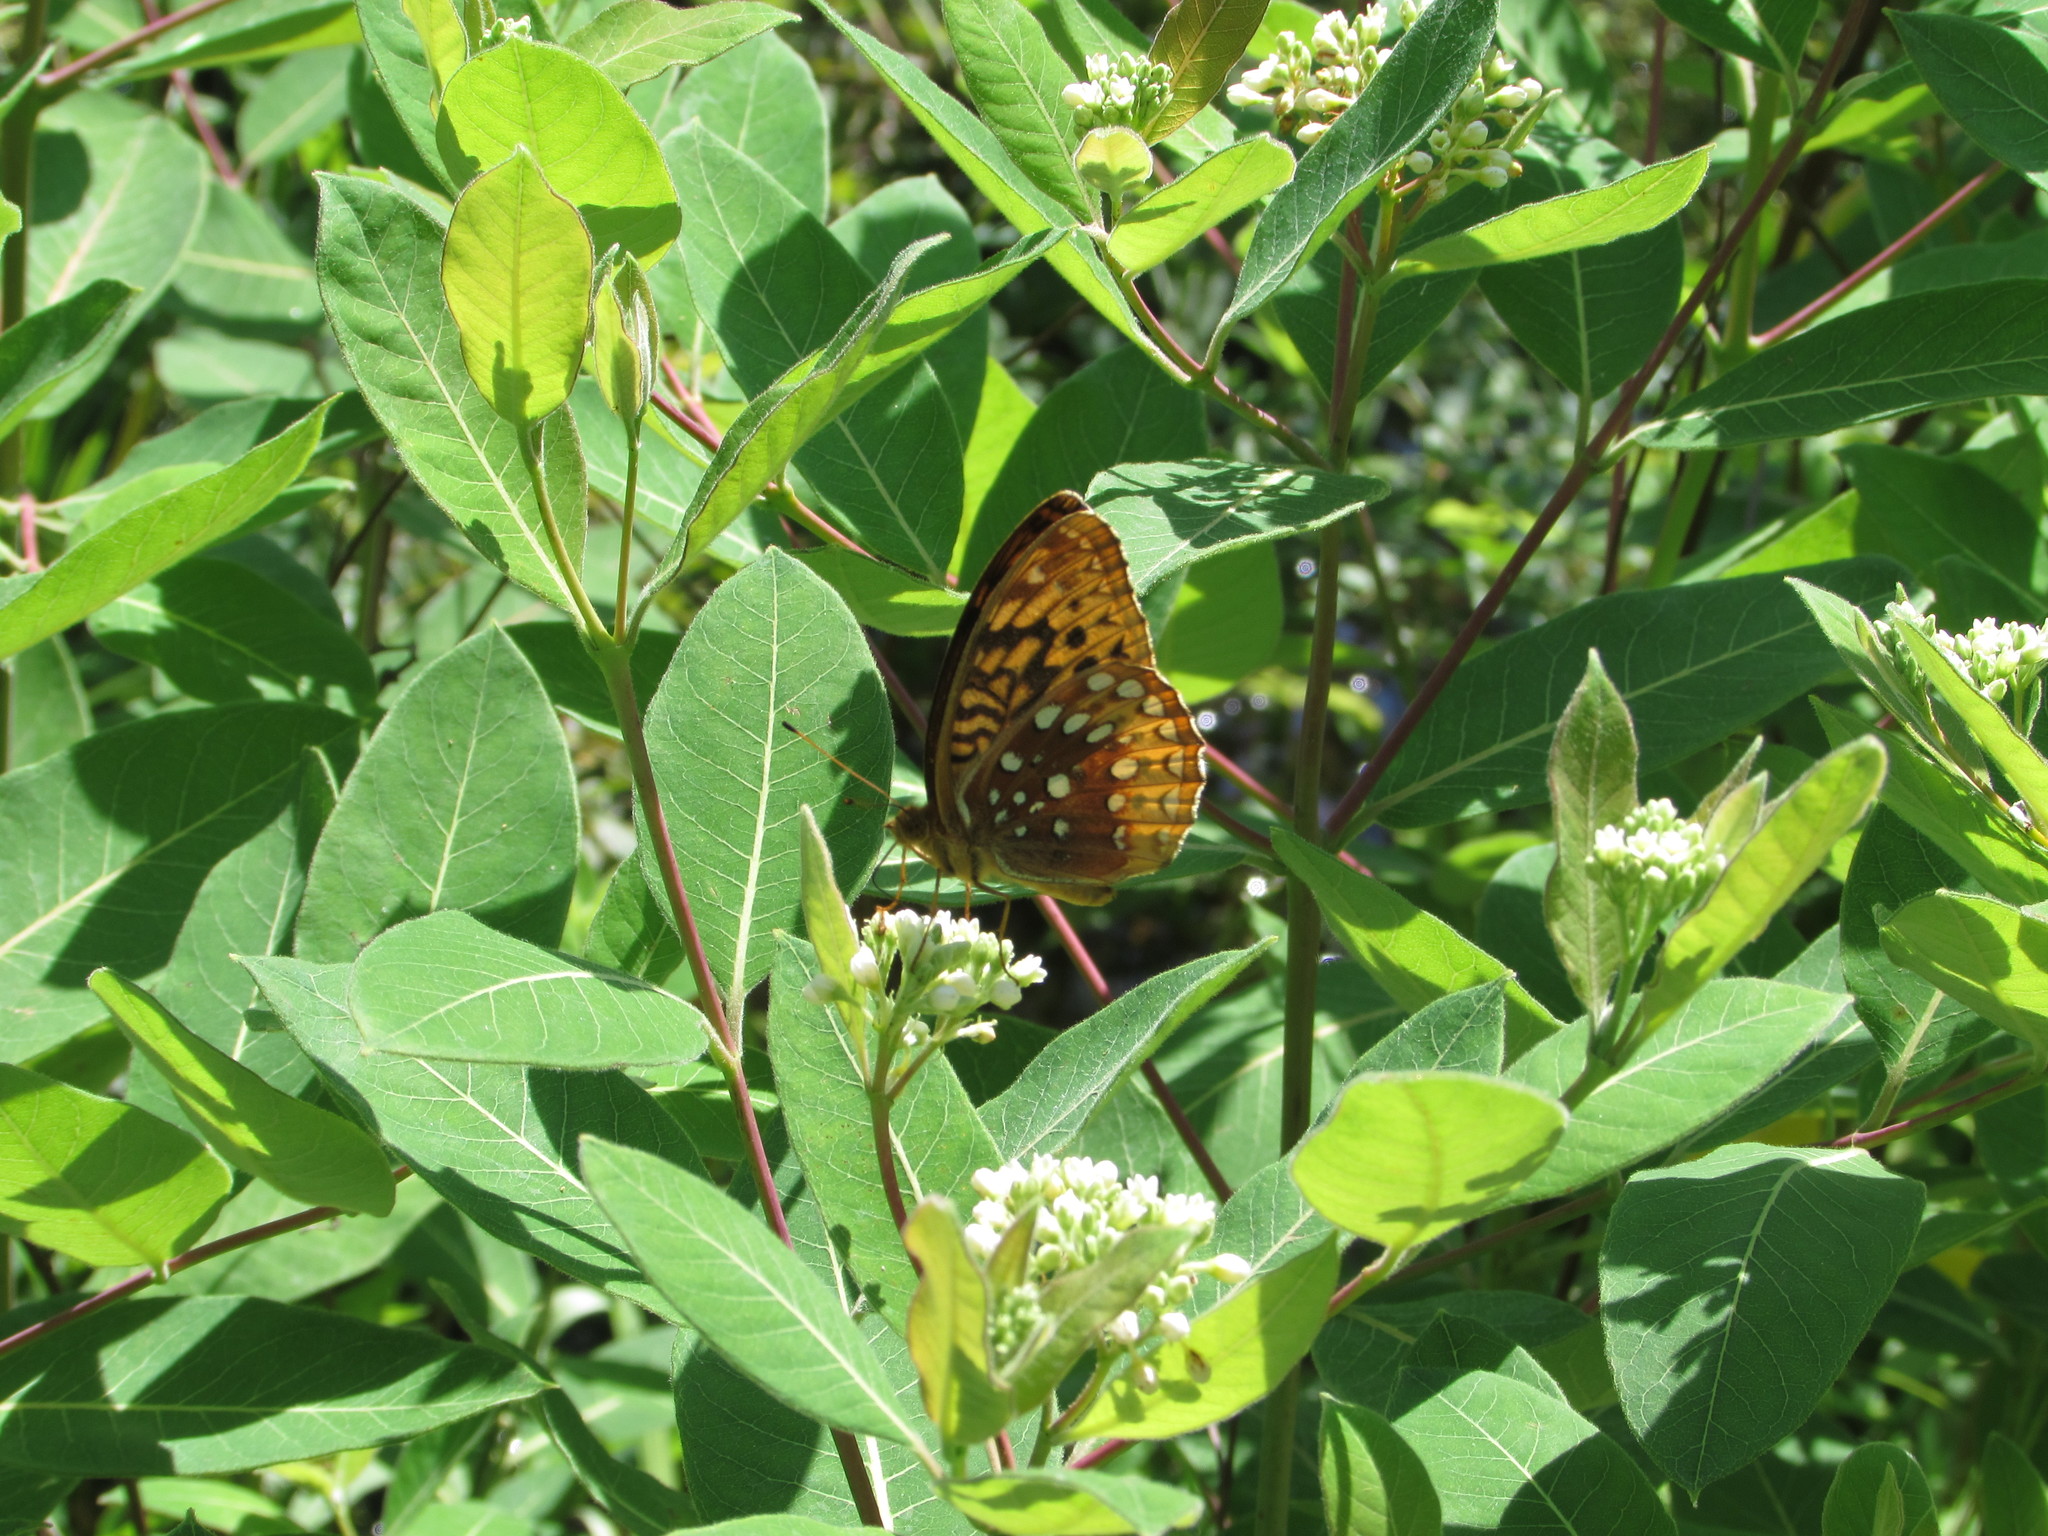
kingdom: Plantae
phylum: Tracheophyta
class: Magnoliopsida
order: Gentianales
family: Apocynaceae
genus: Apocynum
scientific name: Apocynum cannabinum
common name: Hemp dogbane
